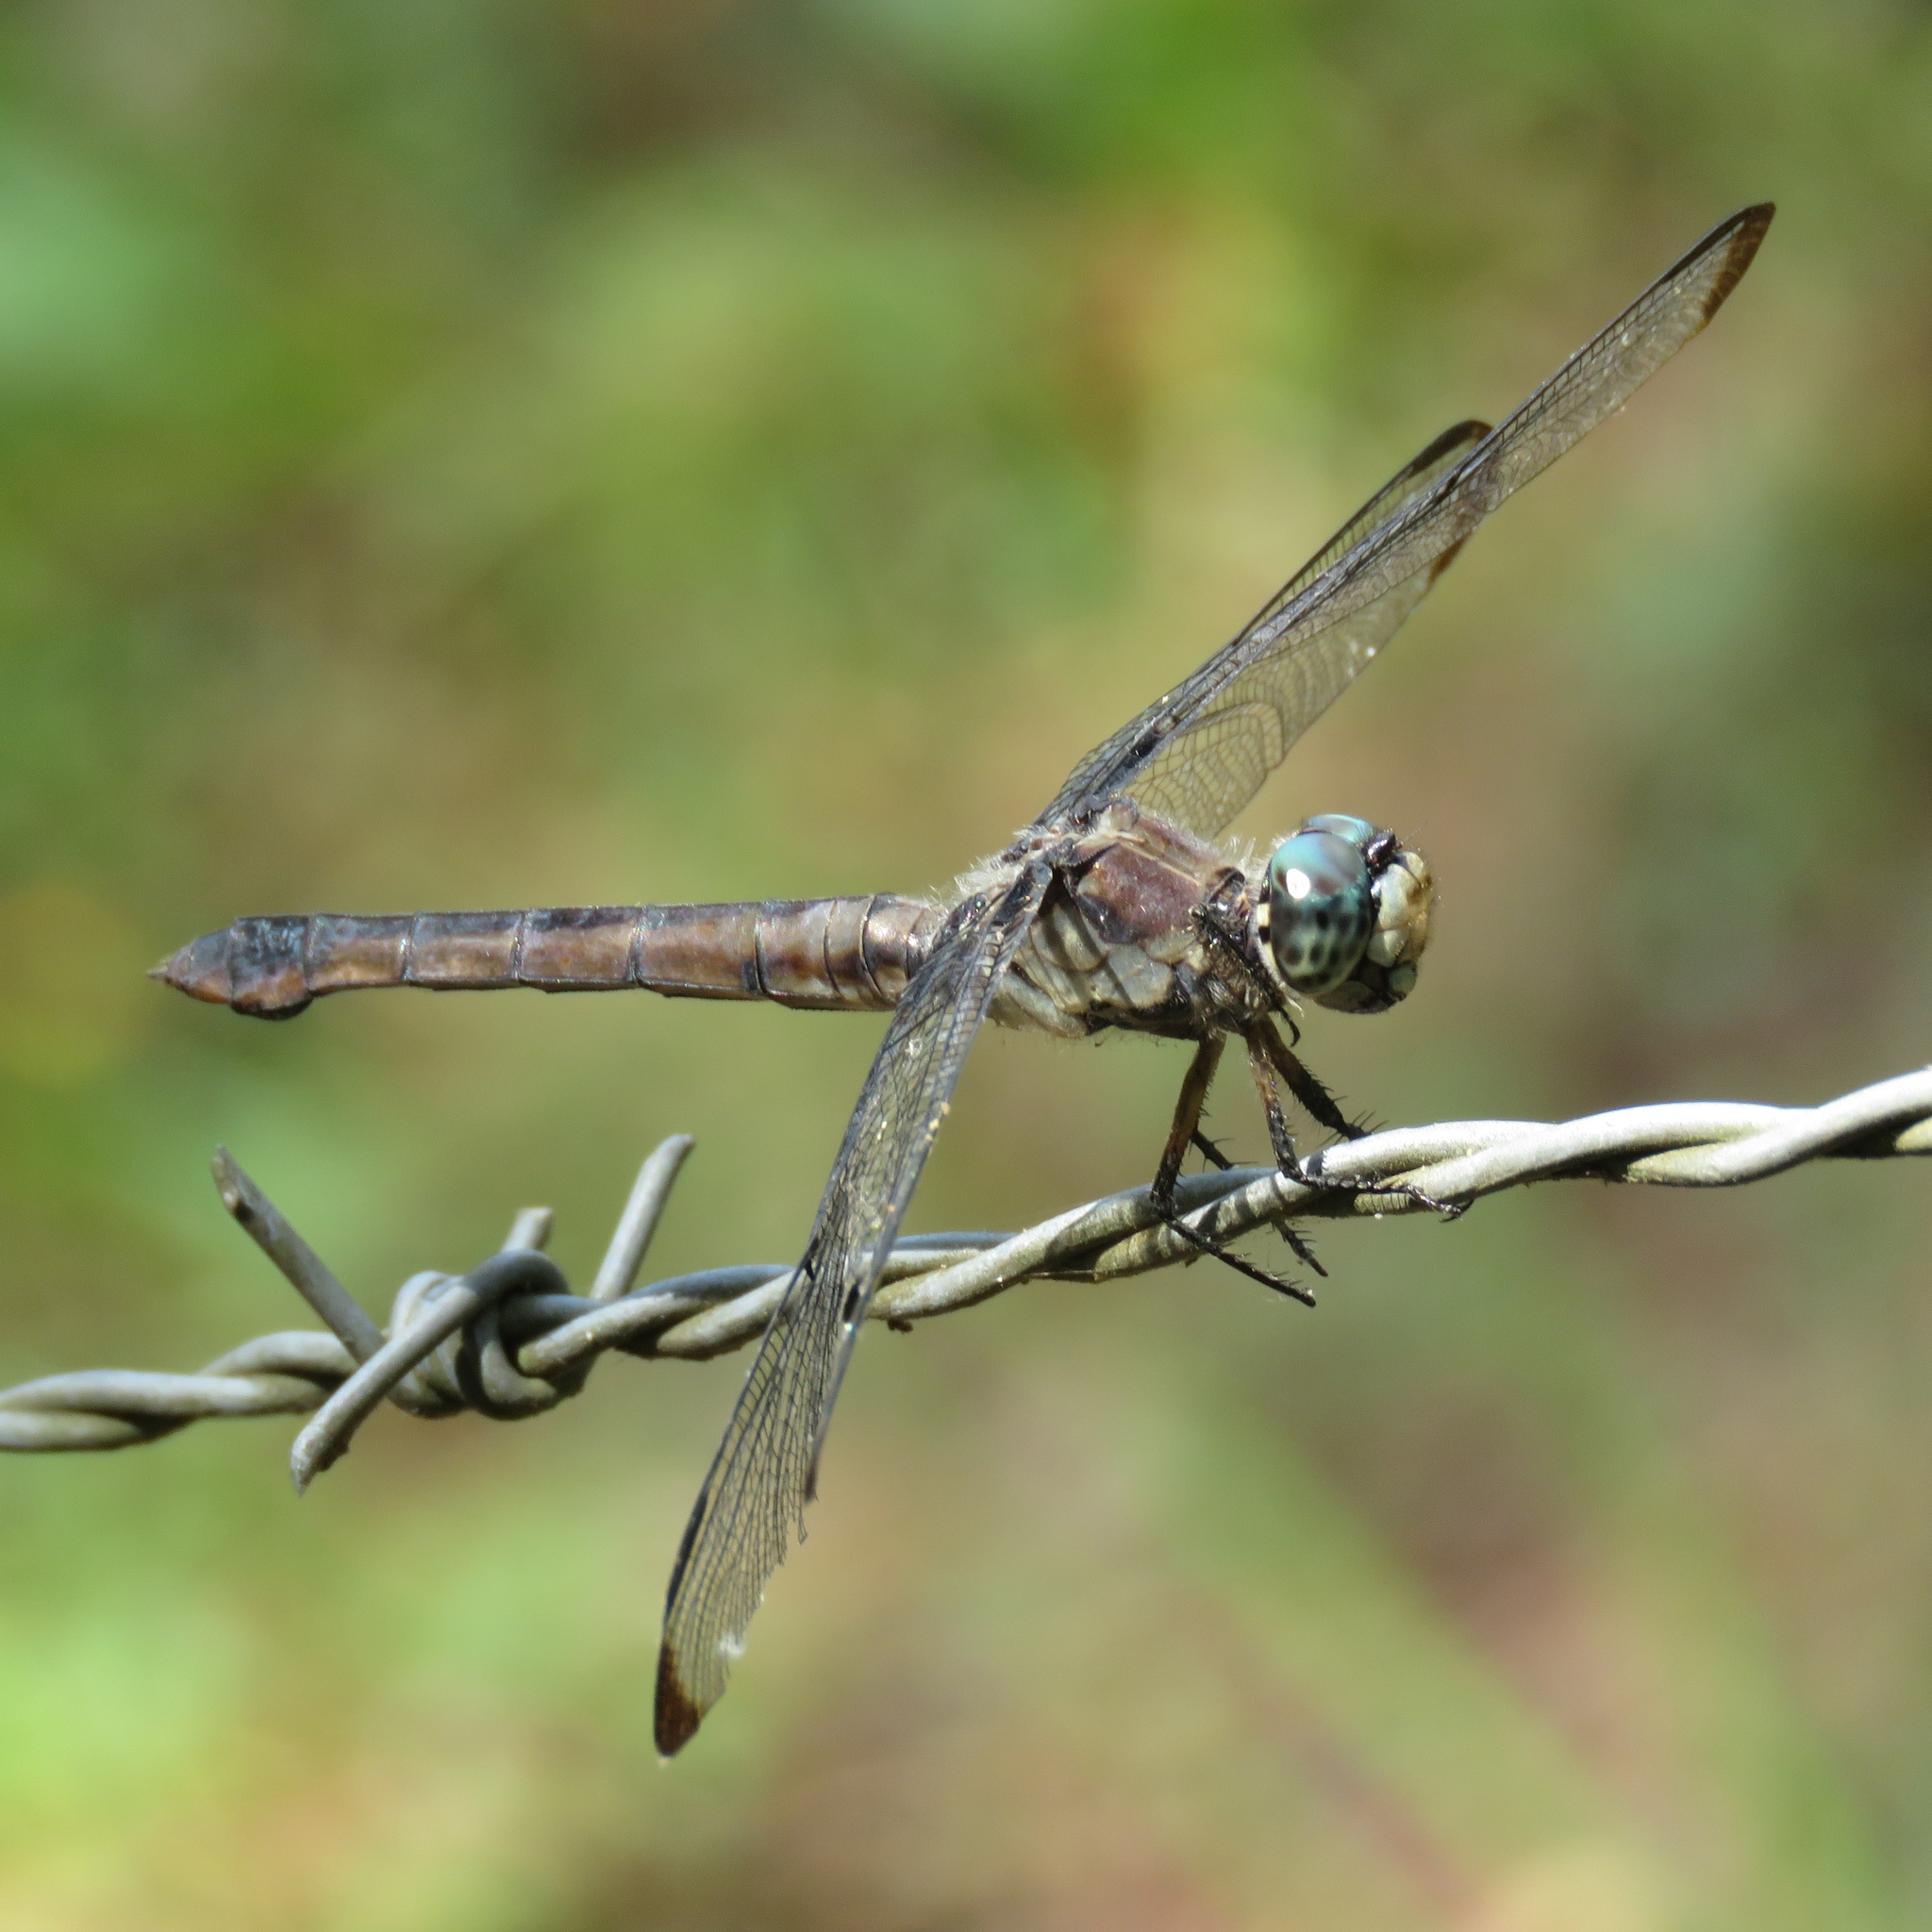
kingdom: Animalia
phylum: Arthropoda
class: Insecta
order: Odonata
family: Libellulidae
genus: Libellula
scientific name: Libellula vibrans
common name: Great blue skimmer
